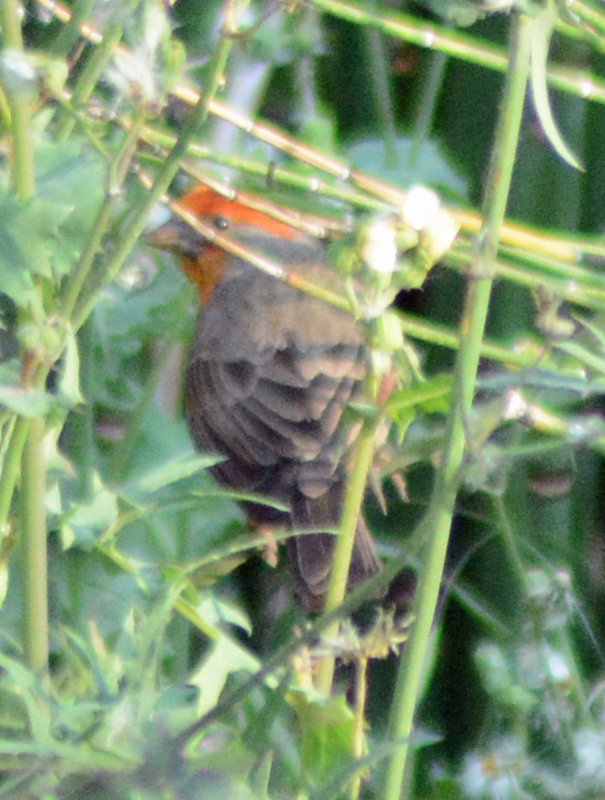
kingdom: Animalia
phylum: Chordata
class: Aves
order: Passeriformes
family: Fringillidae
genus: Haemorhous
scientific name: Haemorhous mexicanus
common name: House finch
